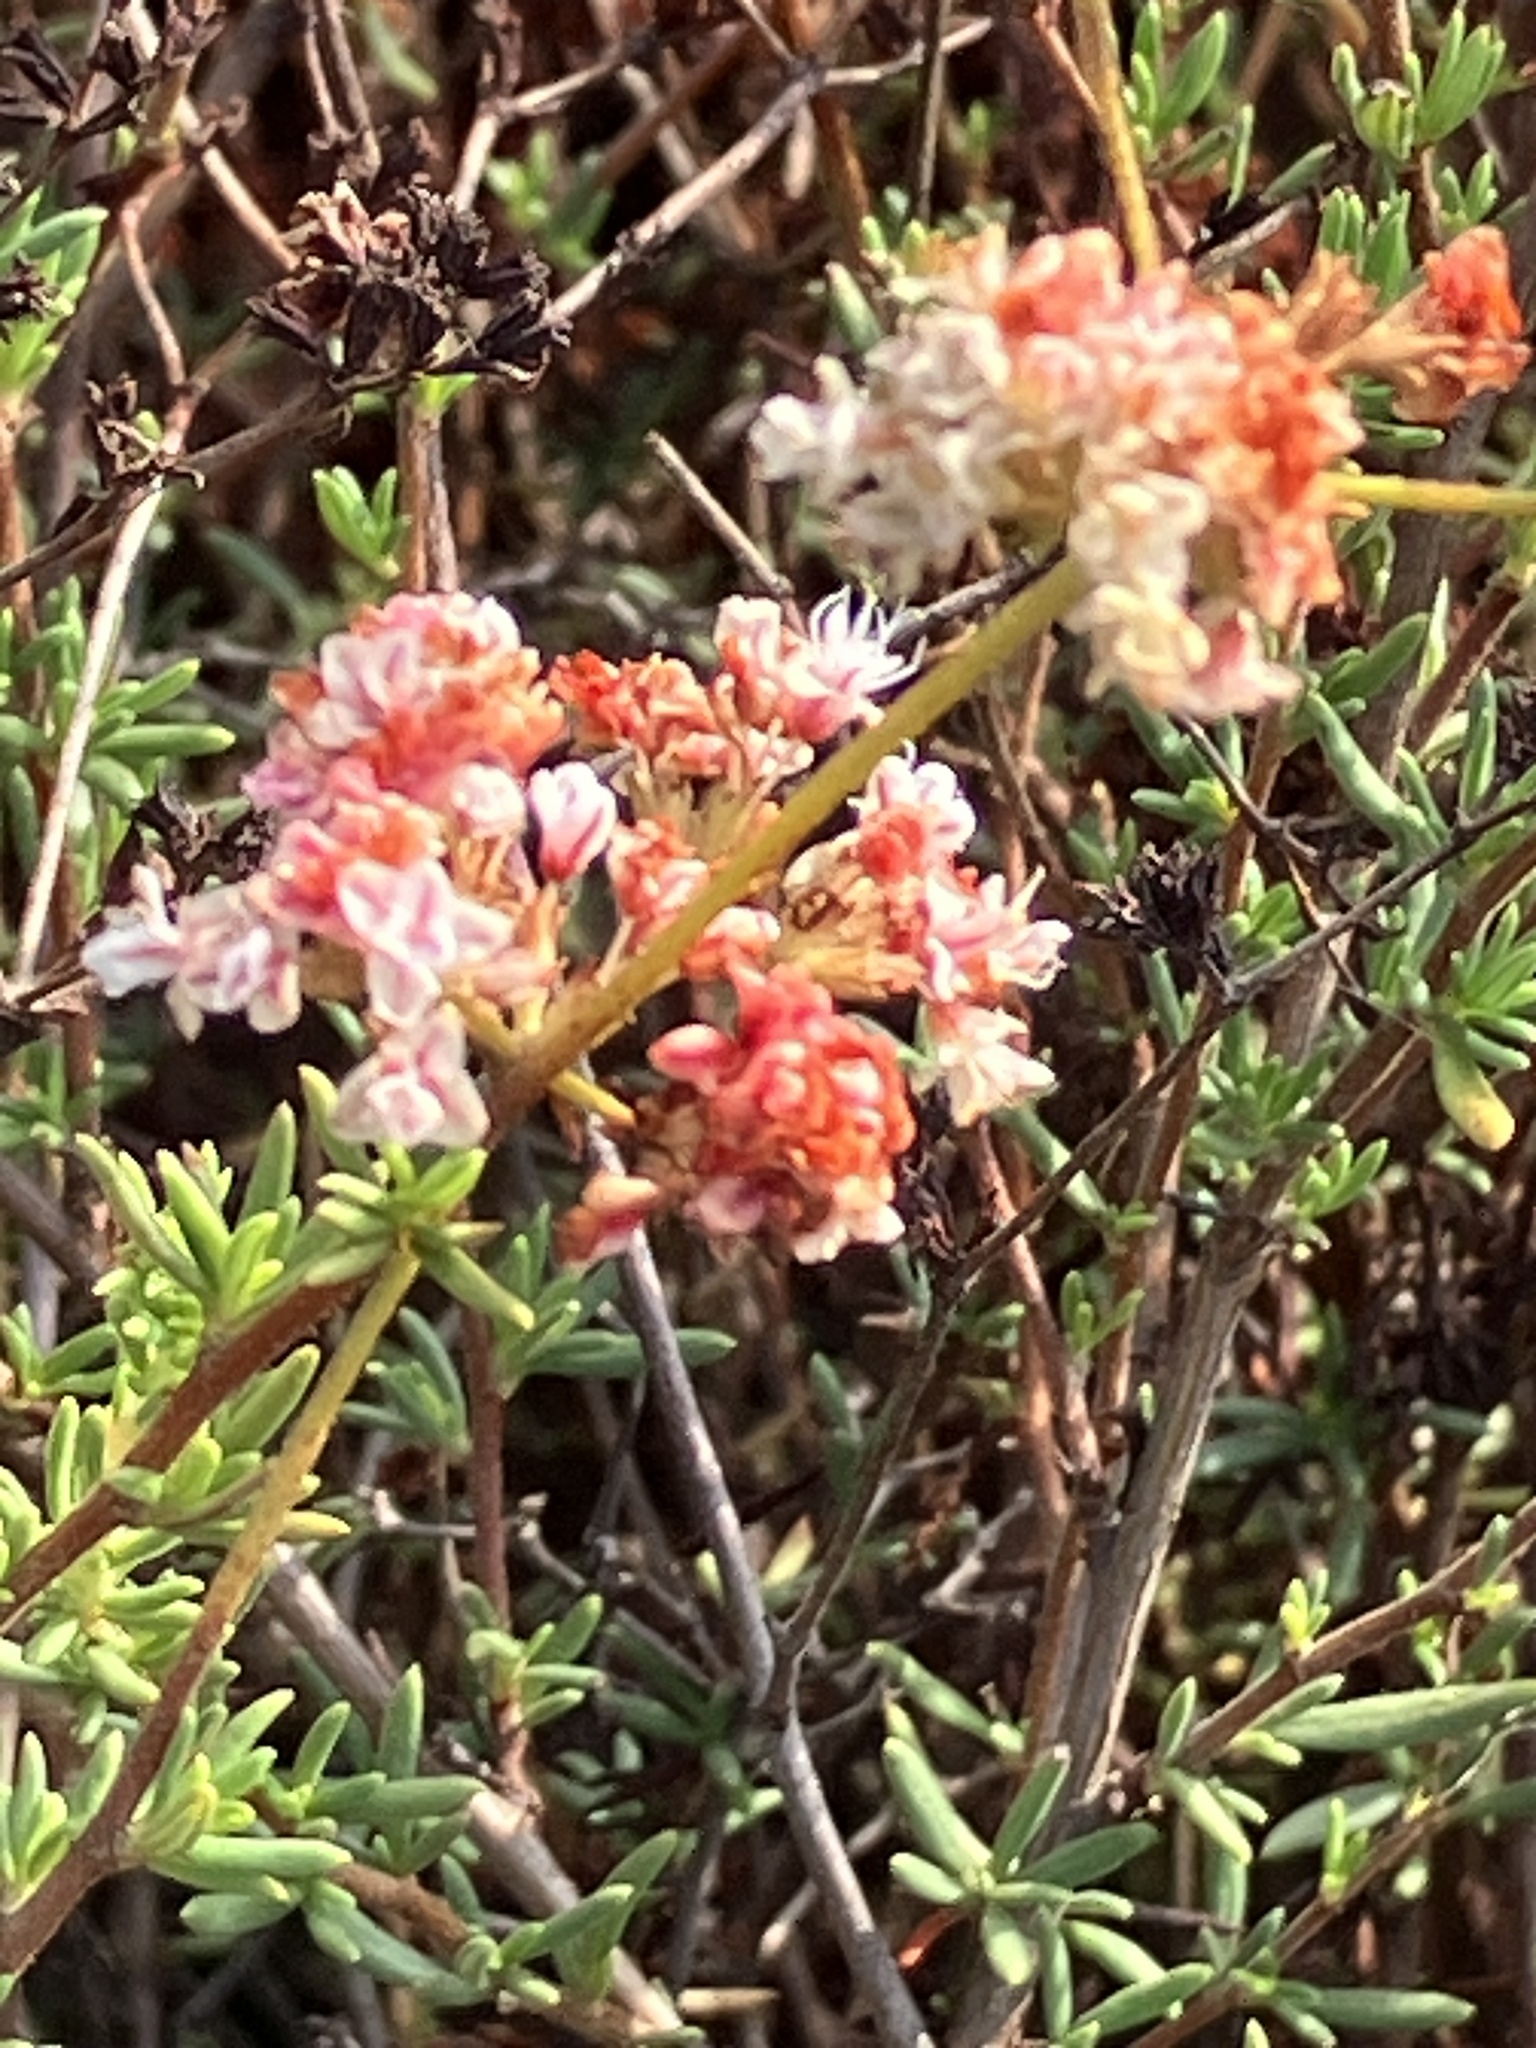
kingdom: Plantae
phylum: Tracheophyta
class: Magnoliopsida
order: Caryophyllales
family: Polygonaceae
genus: Eriogonum
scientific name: Eriogonum fasciculatum
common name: California wild buckwheat
